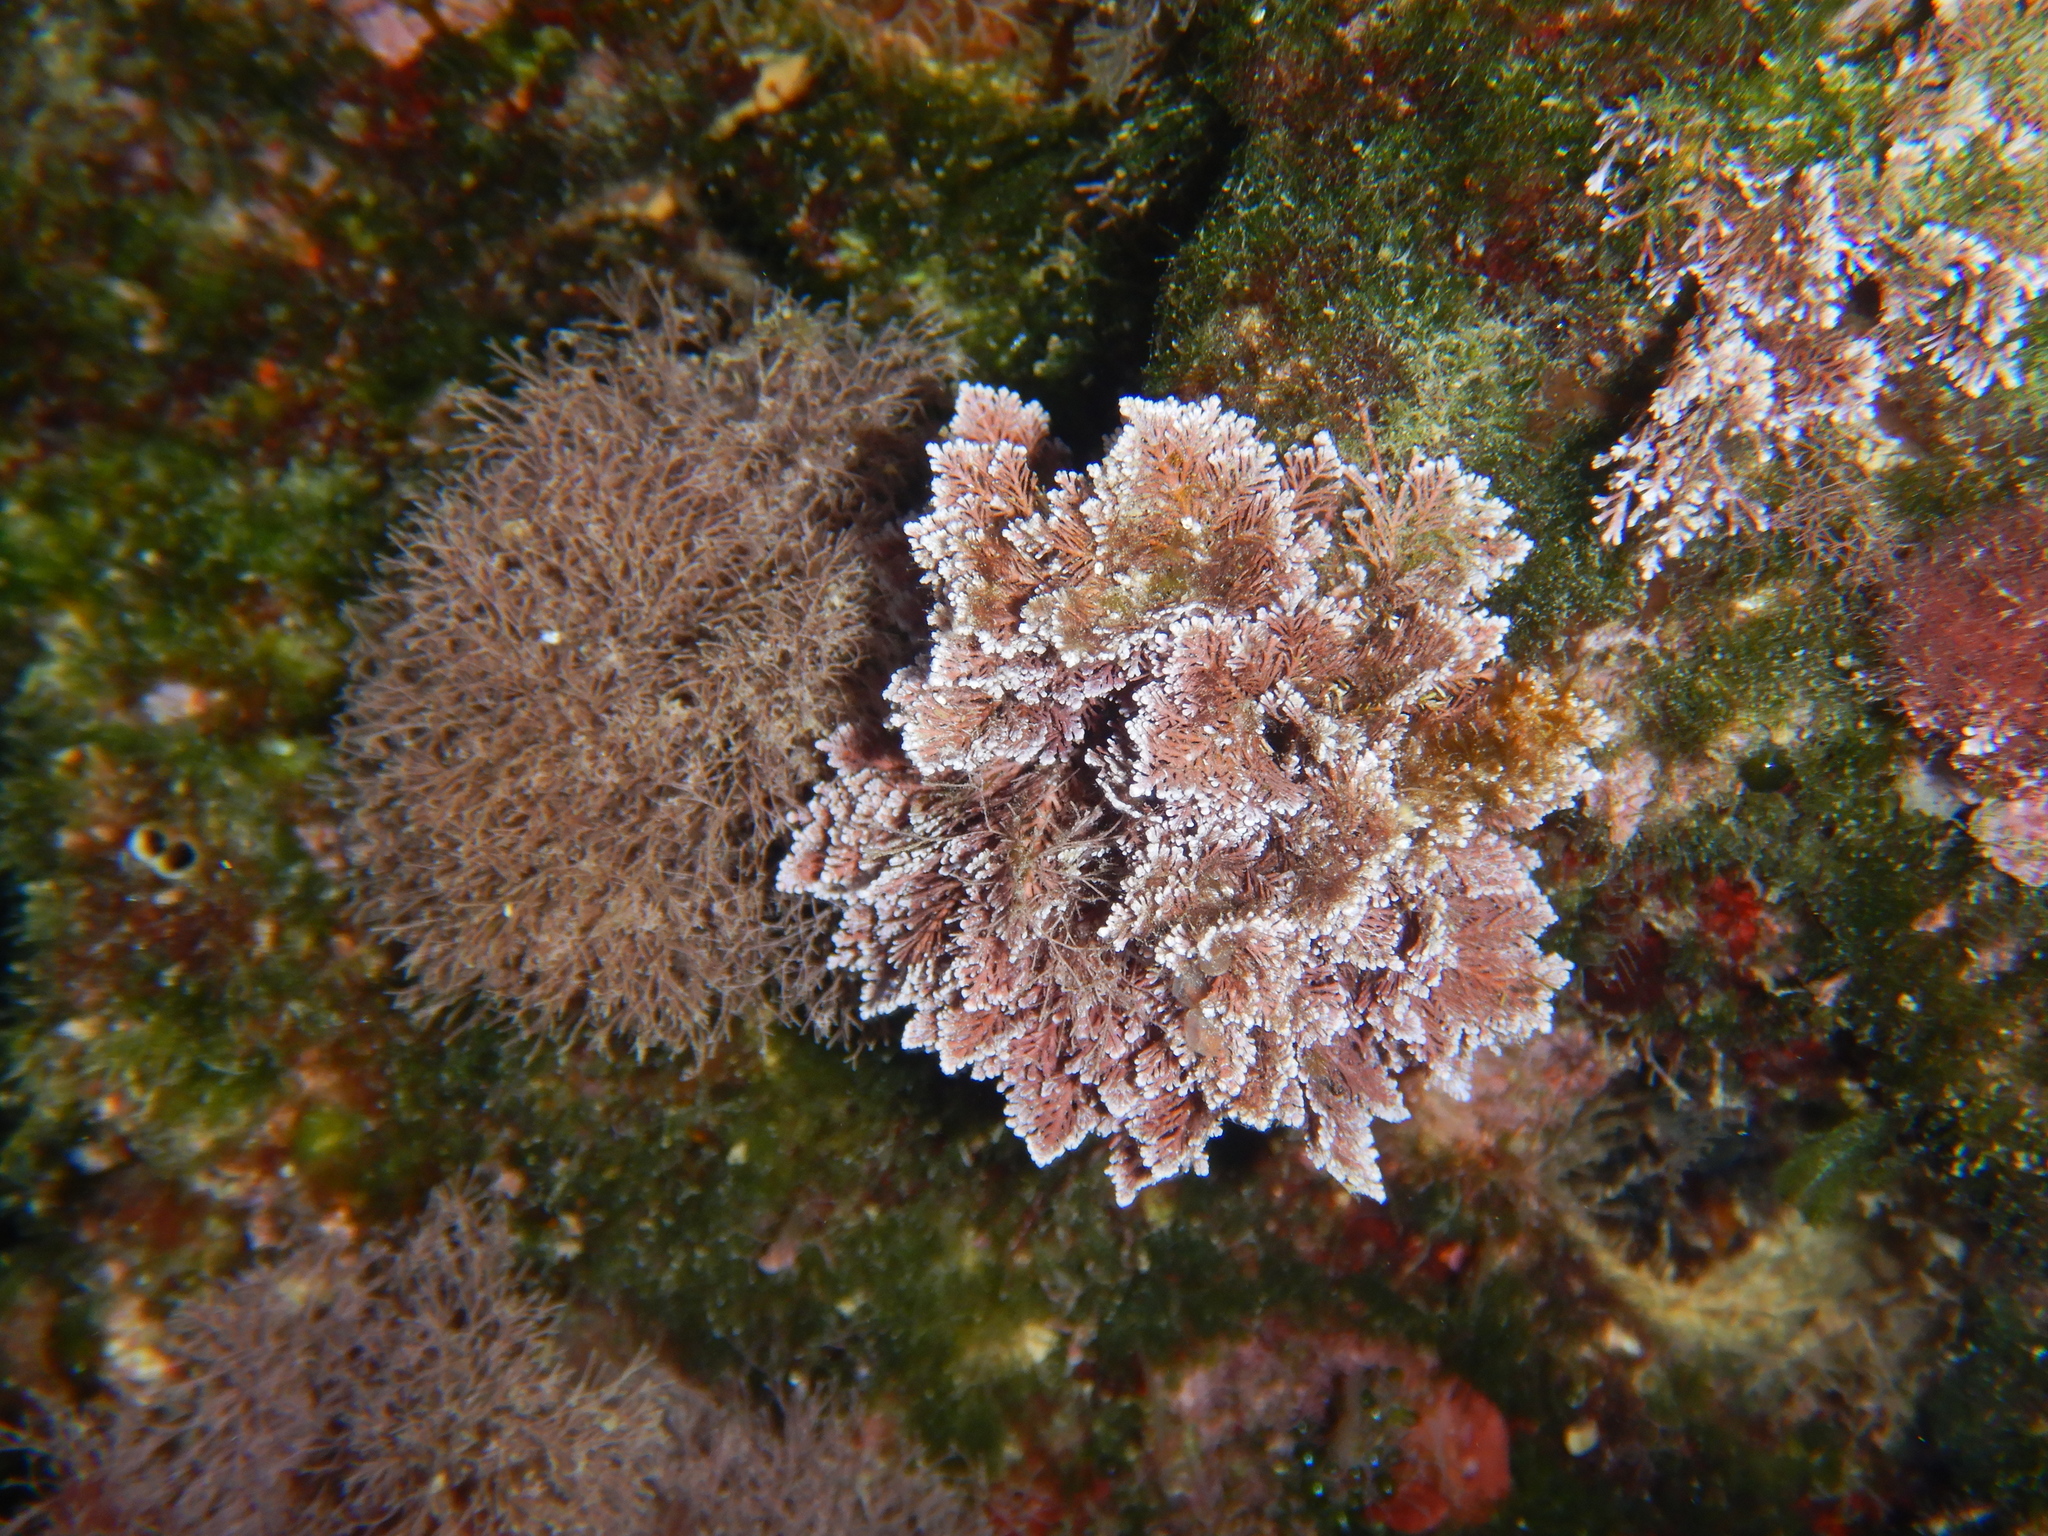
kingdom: Plantae
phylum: Rhodophyta
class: Florideophyceae
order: Corallinales
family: Corallinaceae
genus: Ellisolandia
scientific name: Ellisolandia elongata
